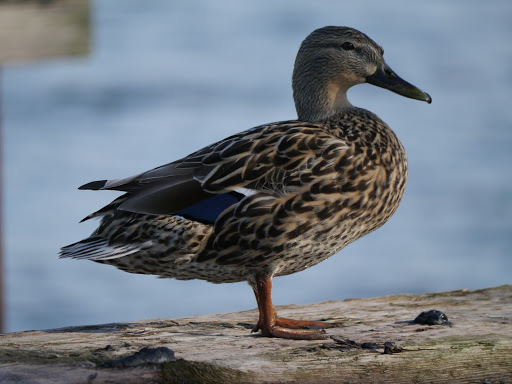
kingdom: Animalia
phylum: Chordata
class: Aves
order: Anseriformes
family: Anatidae
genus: Anas
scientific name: Anas platyrhynchos
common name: Mallard
